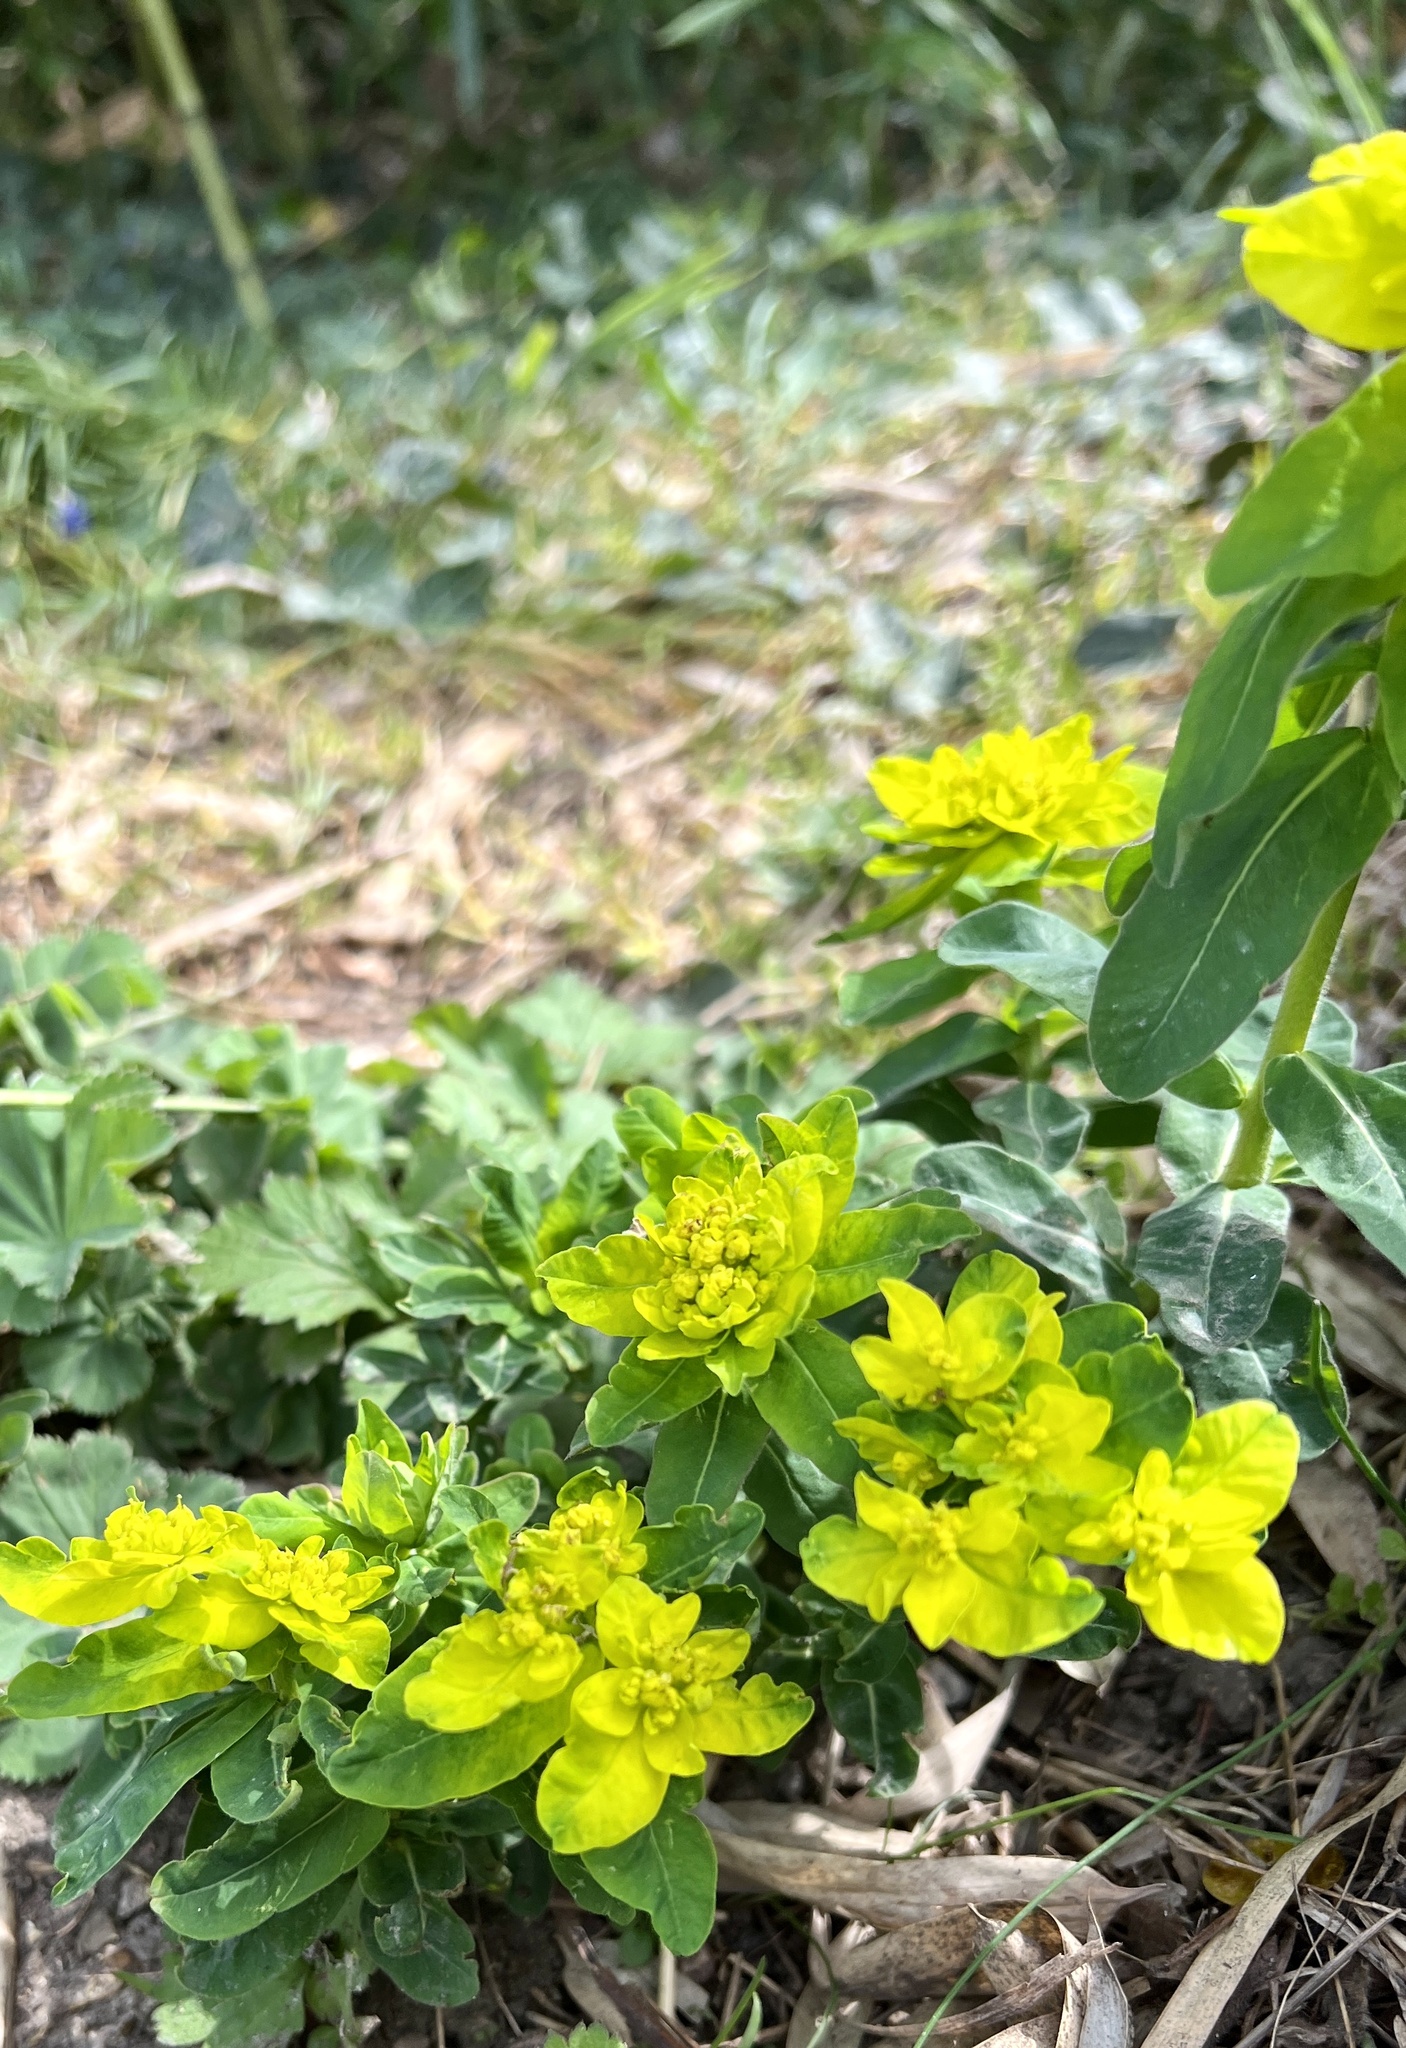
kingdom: Plantae
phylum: Tracheophyta
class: Magnoliopsida
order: Malpighiales
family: Euphorbiaceae
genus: Euphorbia
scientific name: Euphorbia epithymoides
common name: Cushion spurge
